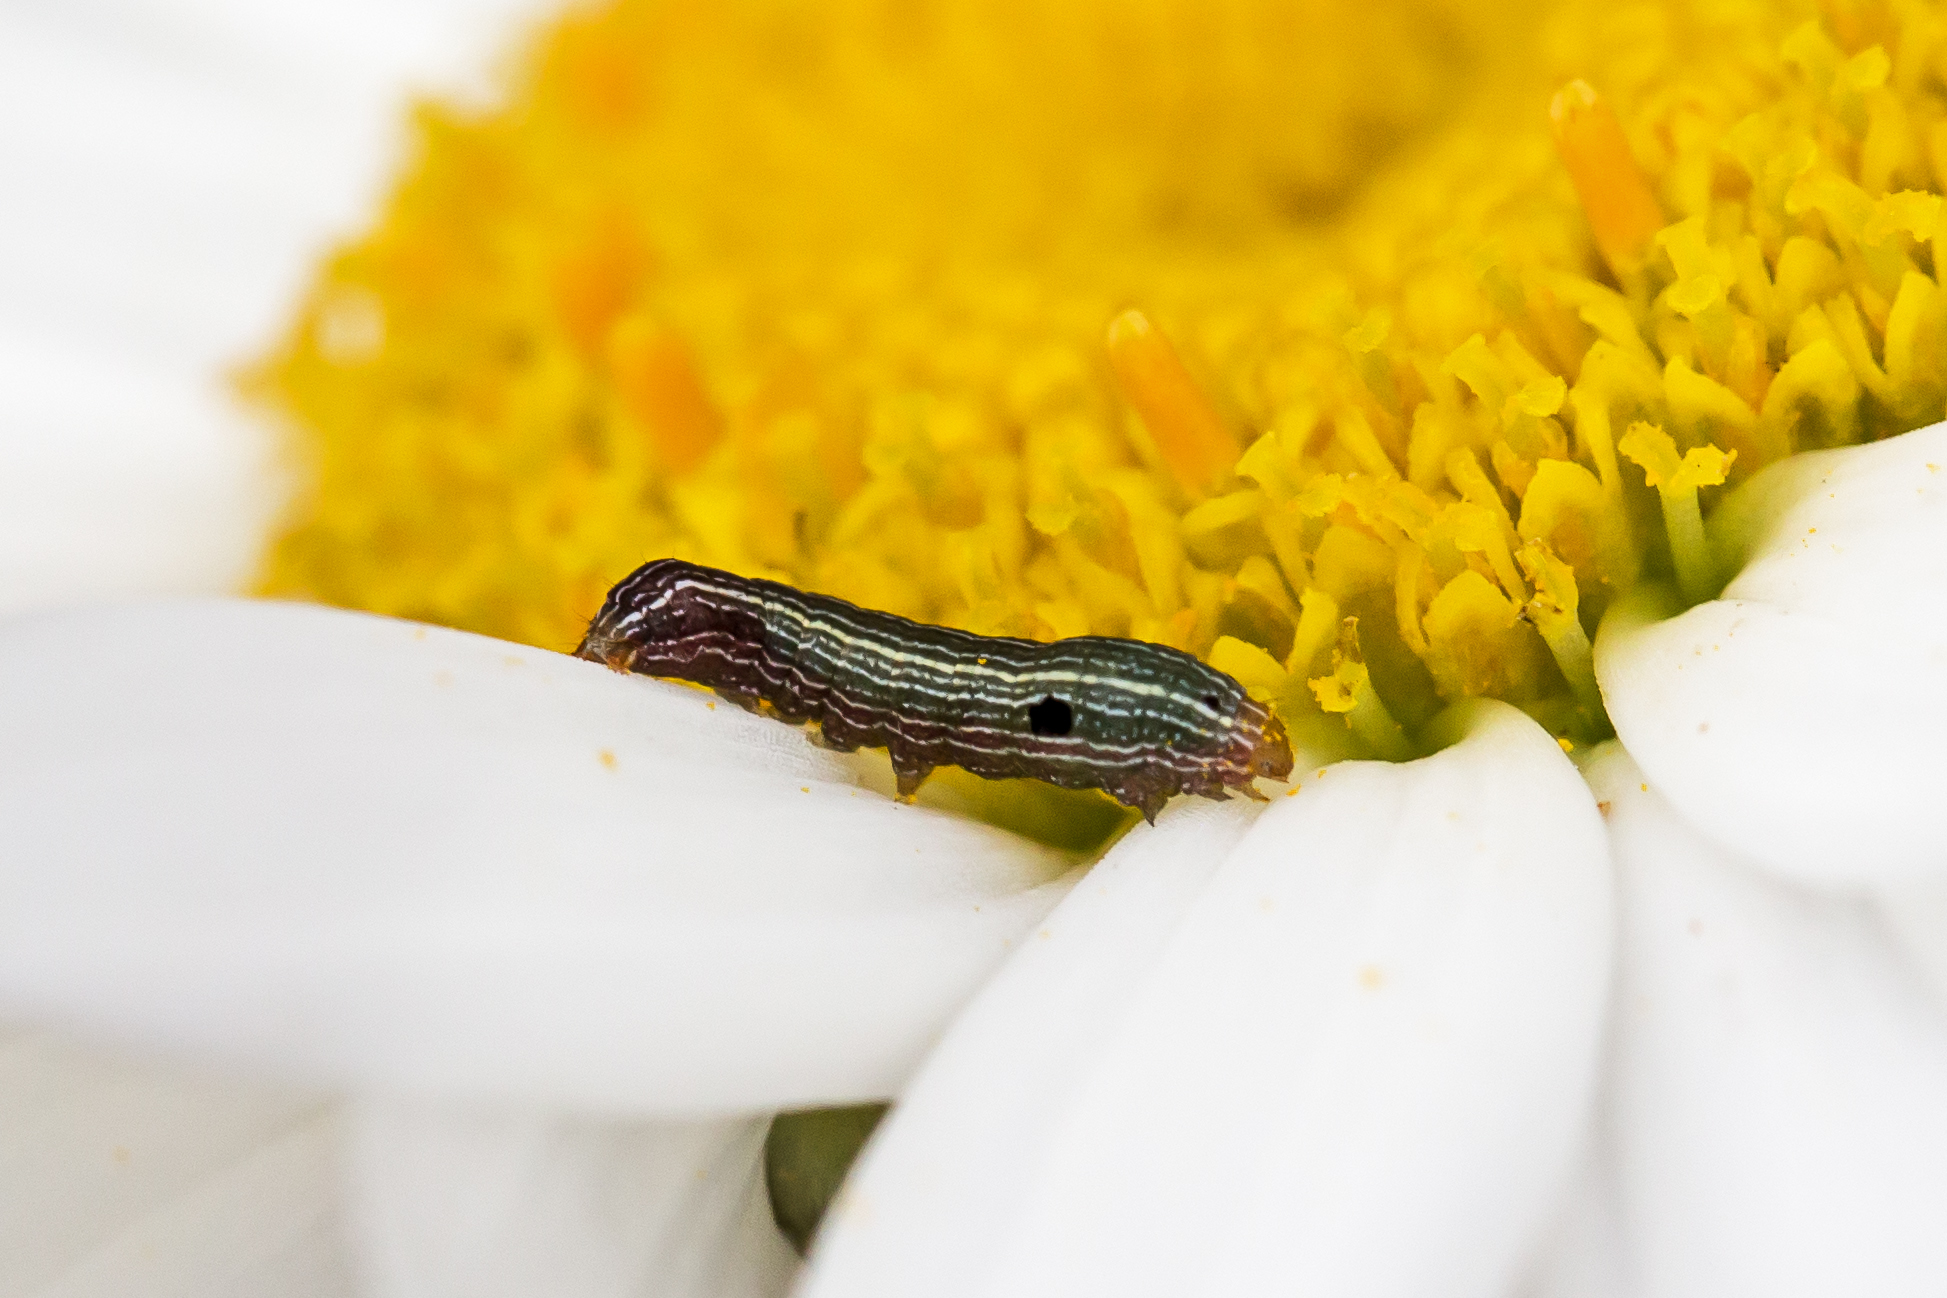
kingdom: Animalia
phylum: Arthropoda
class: Insecta
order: Lepidoptera
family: Noctuidae
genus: Spodoptera
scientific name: Spodoptera ornithogalli
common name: Yellow-striped armyworm
